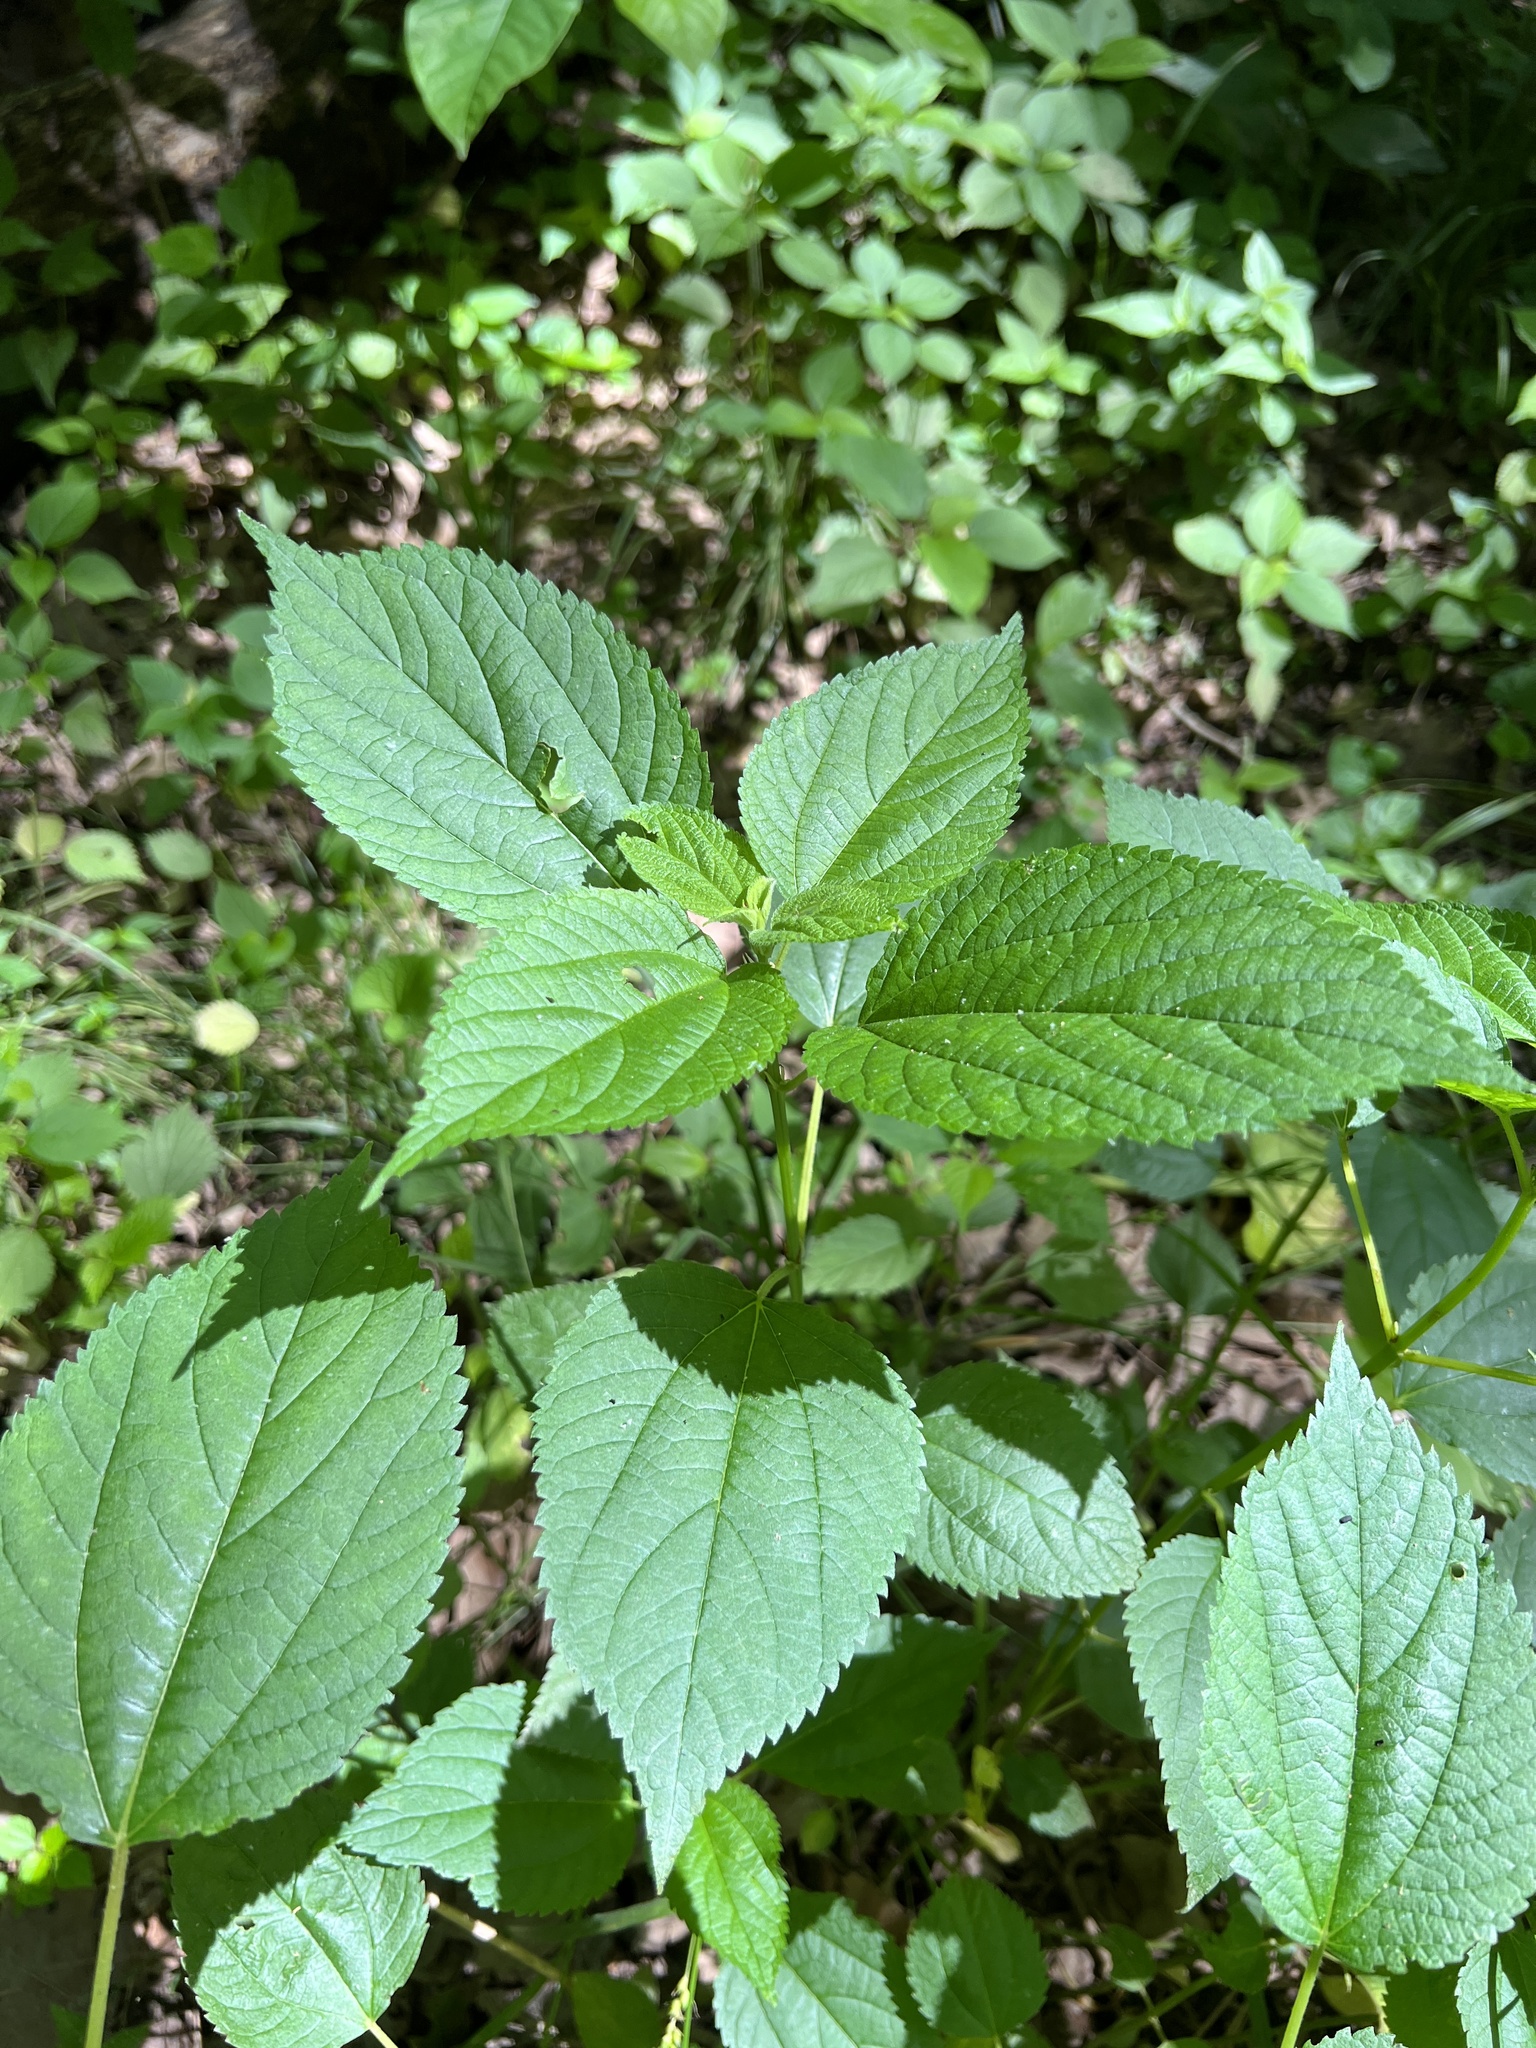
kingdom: Plantae
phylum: Tracheophyta
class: Magnoliopsida
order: Rosales
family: Urticaceae
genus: Boehmeria
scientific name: Boehmeria cylindrica
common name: Bog-hemp
